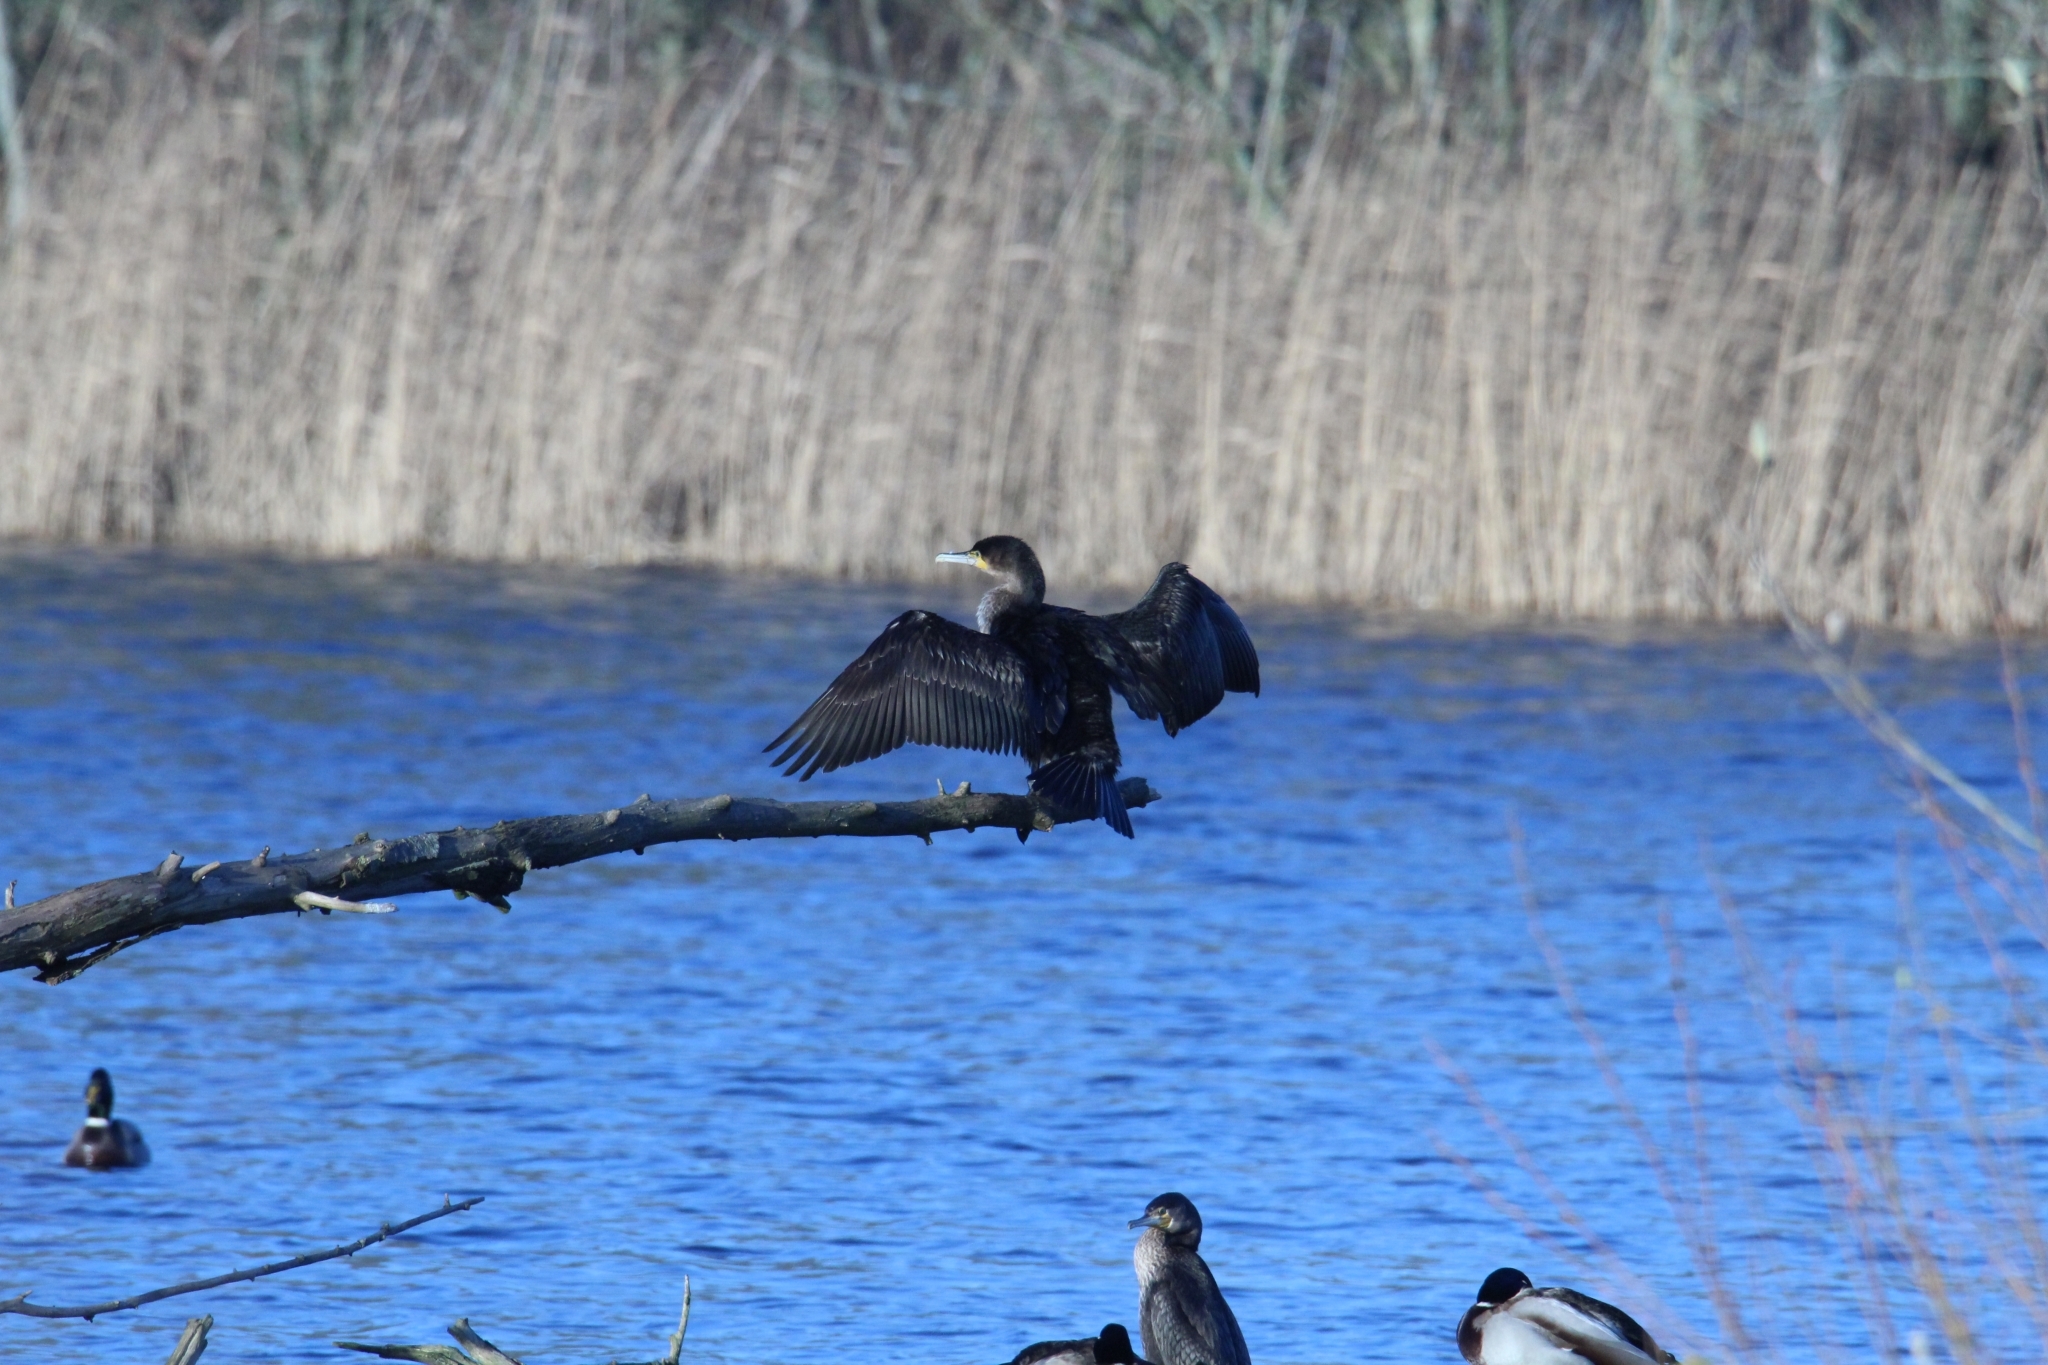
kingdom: Animalia
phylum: Chordata
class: Aves
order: Suliformes
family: Phalacrocoracidae
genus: Phalacrocorax
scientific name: Phalacrocorax carbo
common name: Great cormorant
